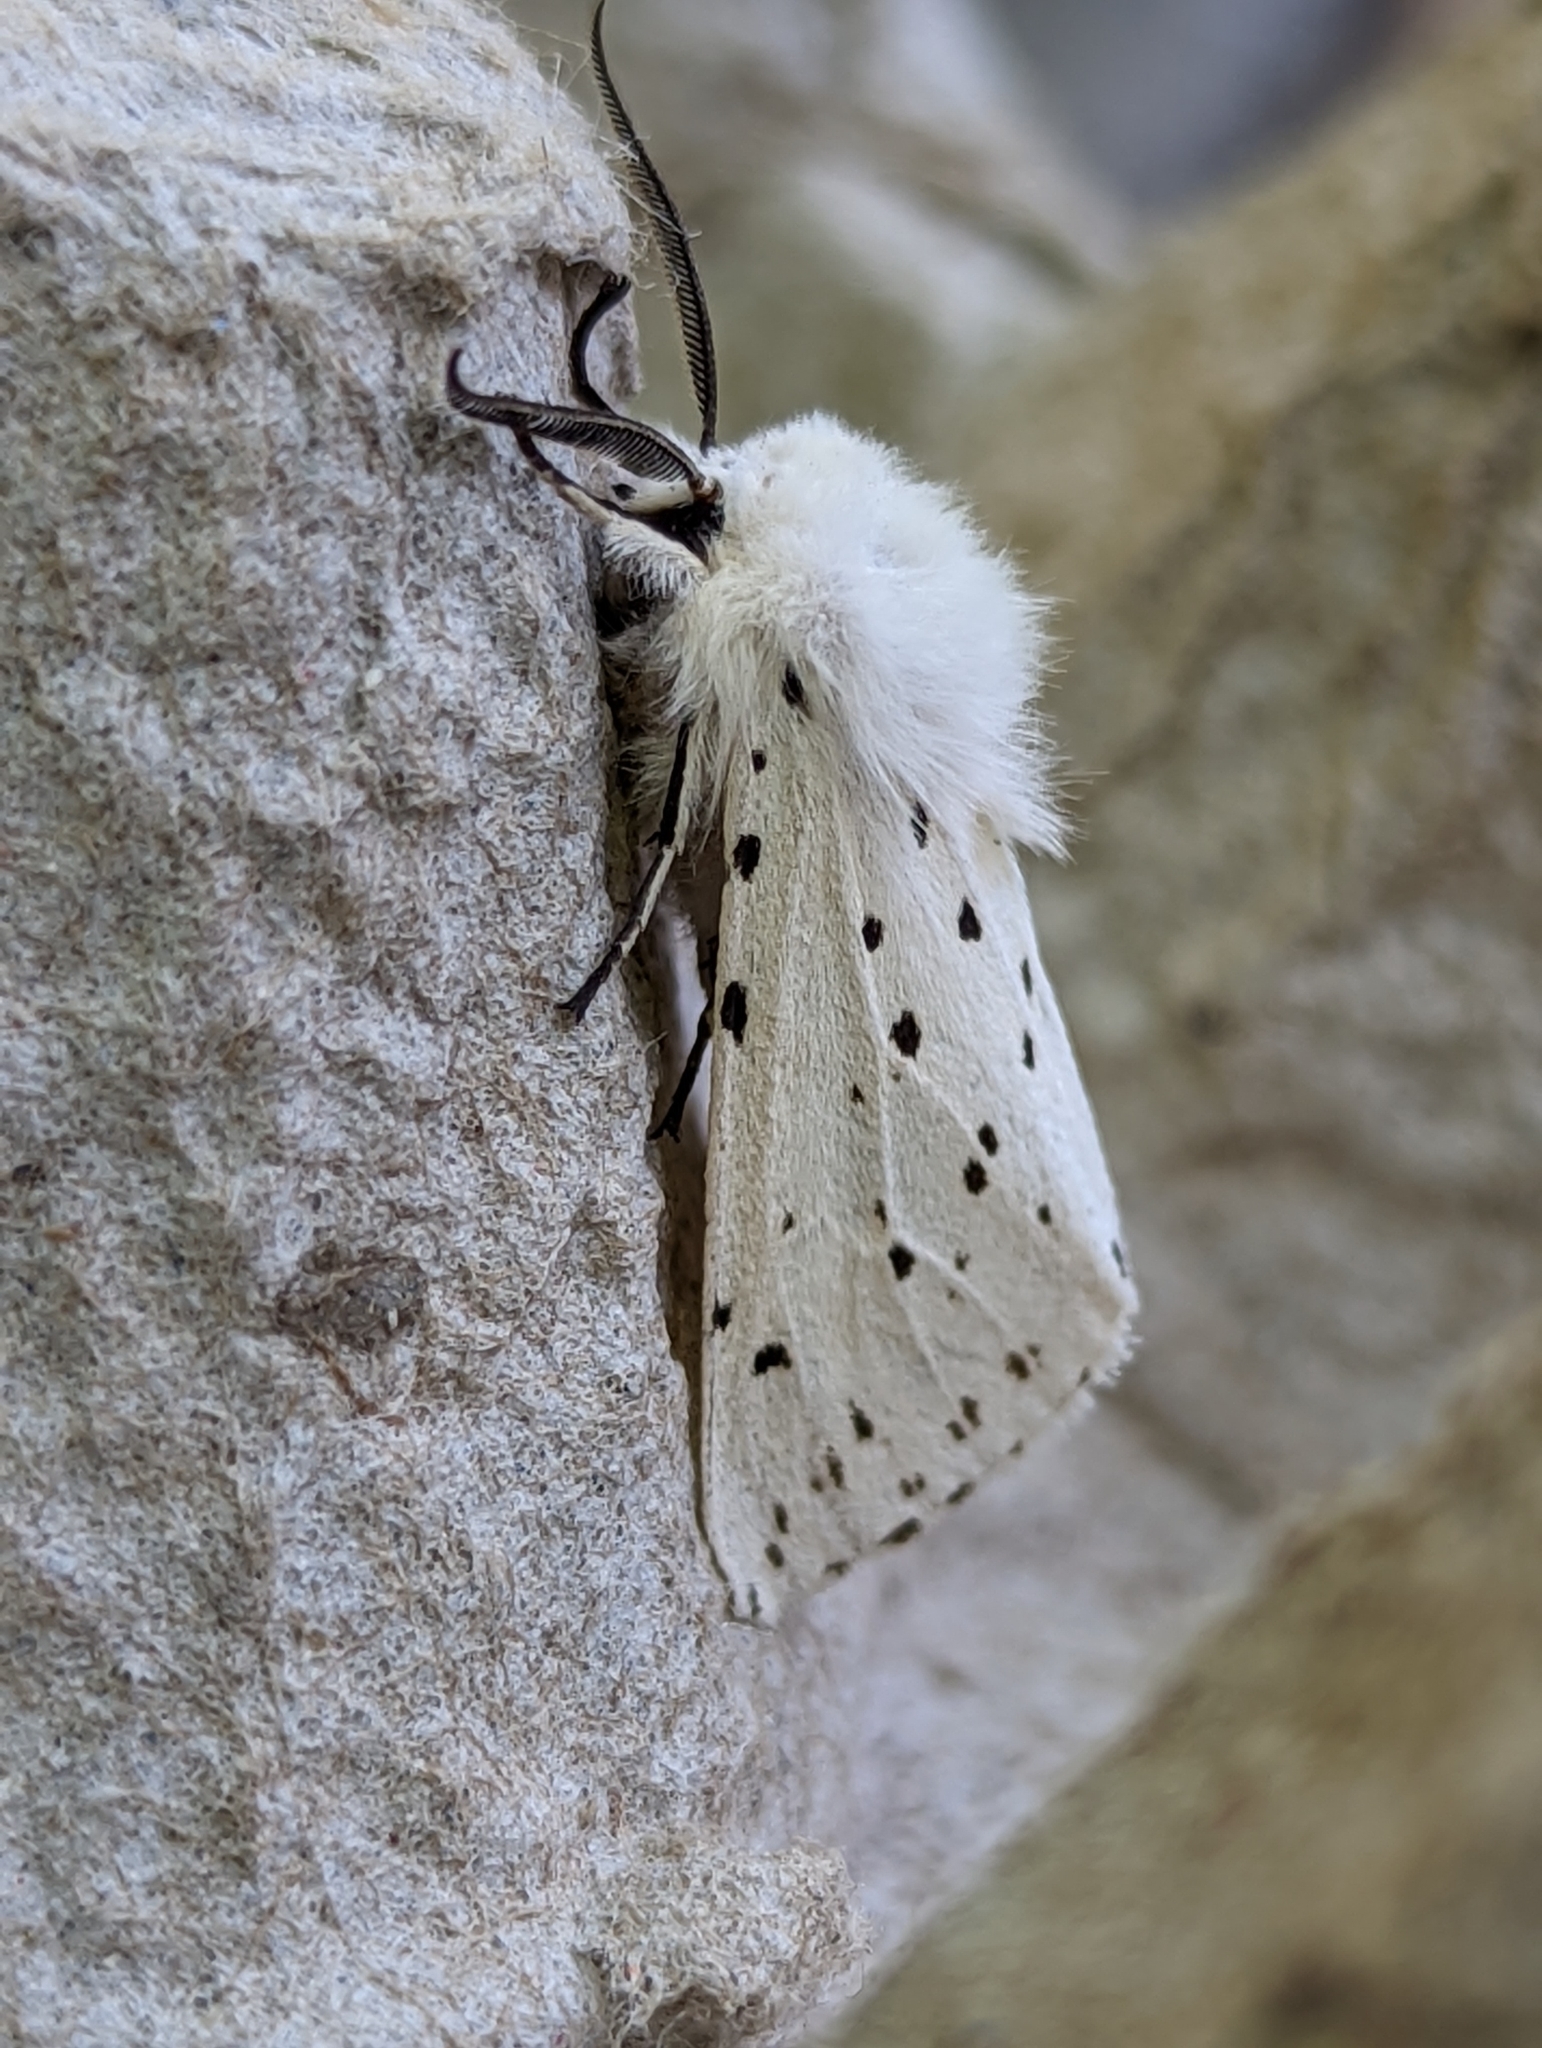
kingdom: Animalia
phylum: Arthropoda
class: Insecta
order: Lepidoptera
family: Erebidae
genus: Spilosoma
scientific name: Spilosoma lubricipeda
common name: White ermine
